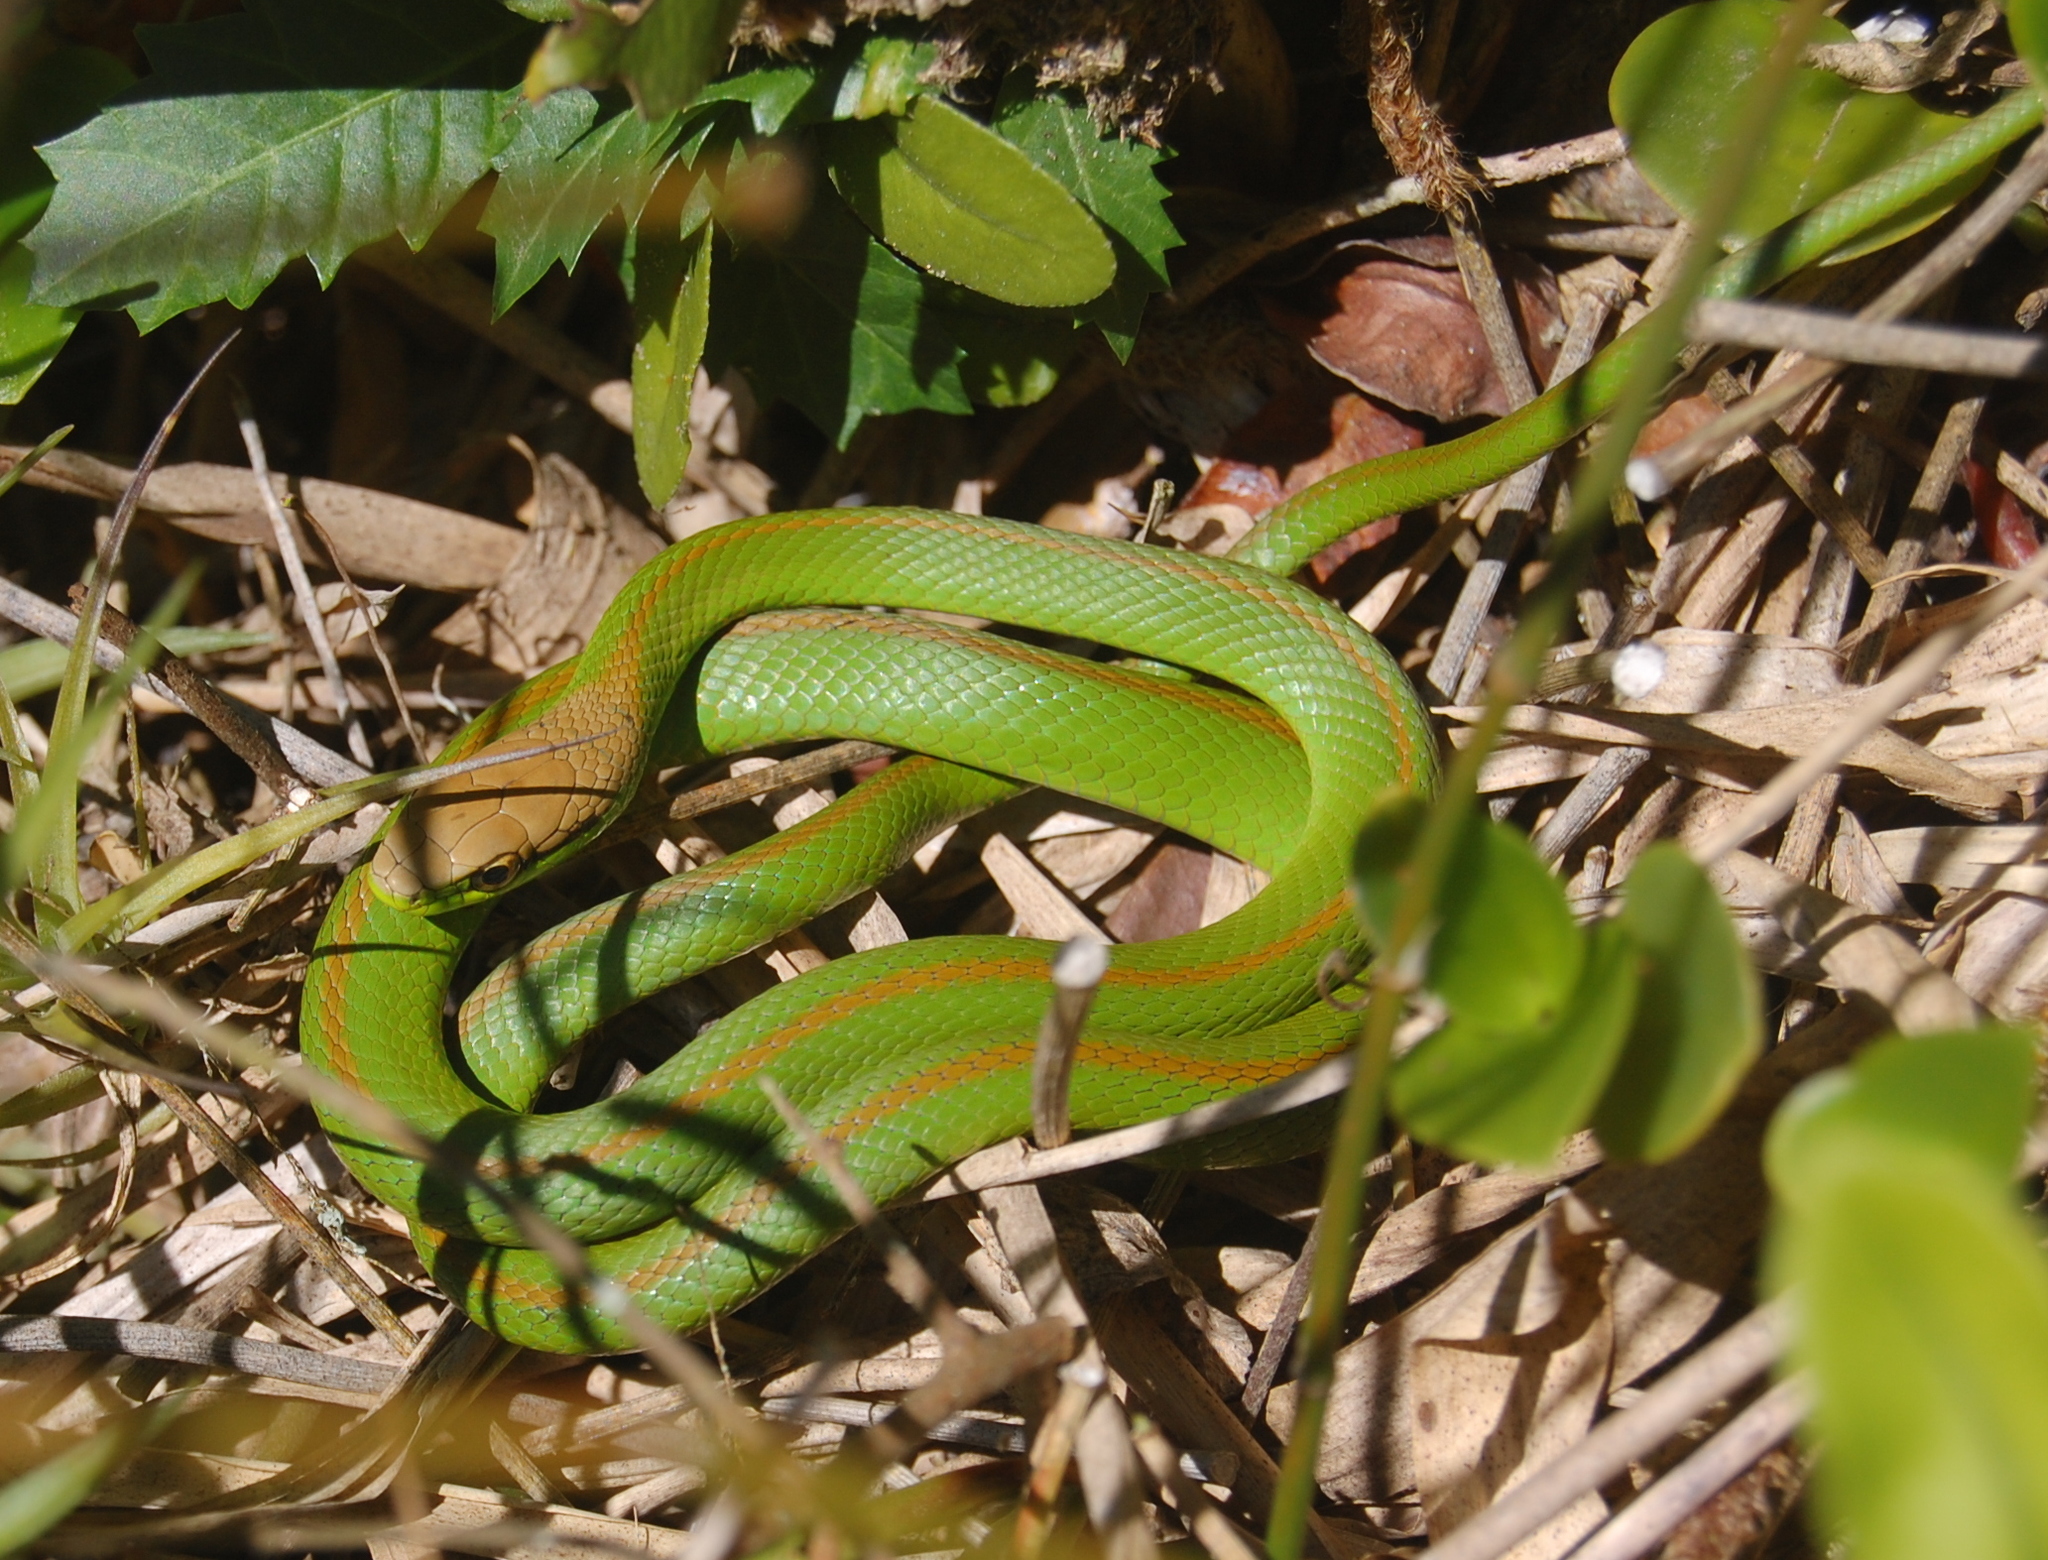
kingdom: Animalia
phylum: Chordata
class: Squamata
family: Colubridae
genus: Philodryas
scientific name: Philodryas olfersii
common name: Lichtenstein's green racer
